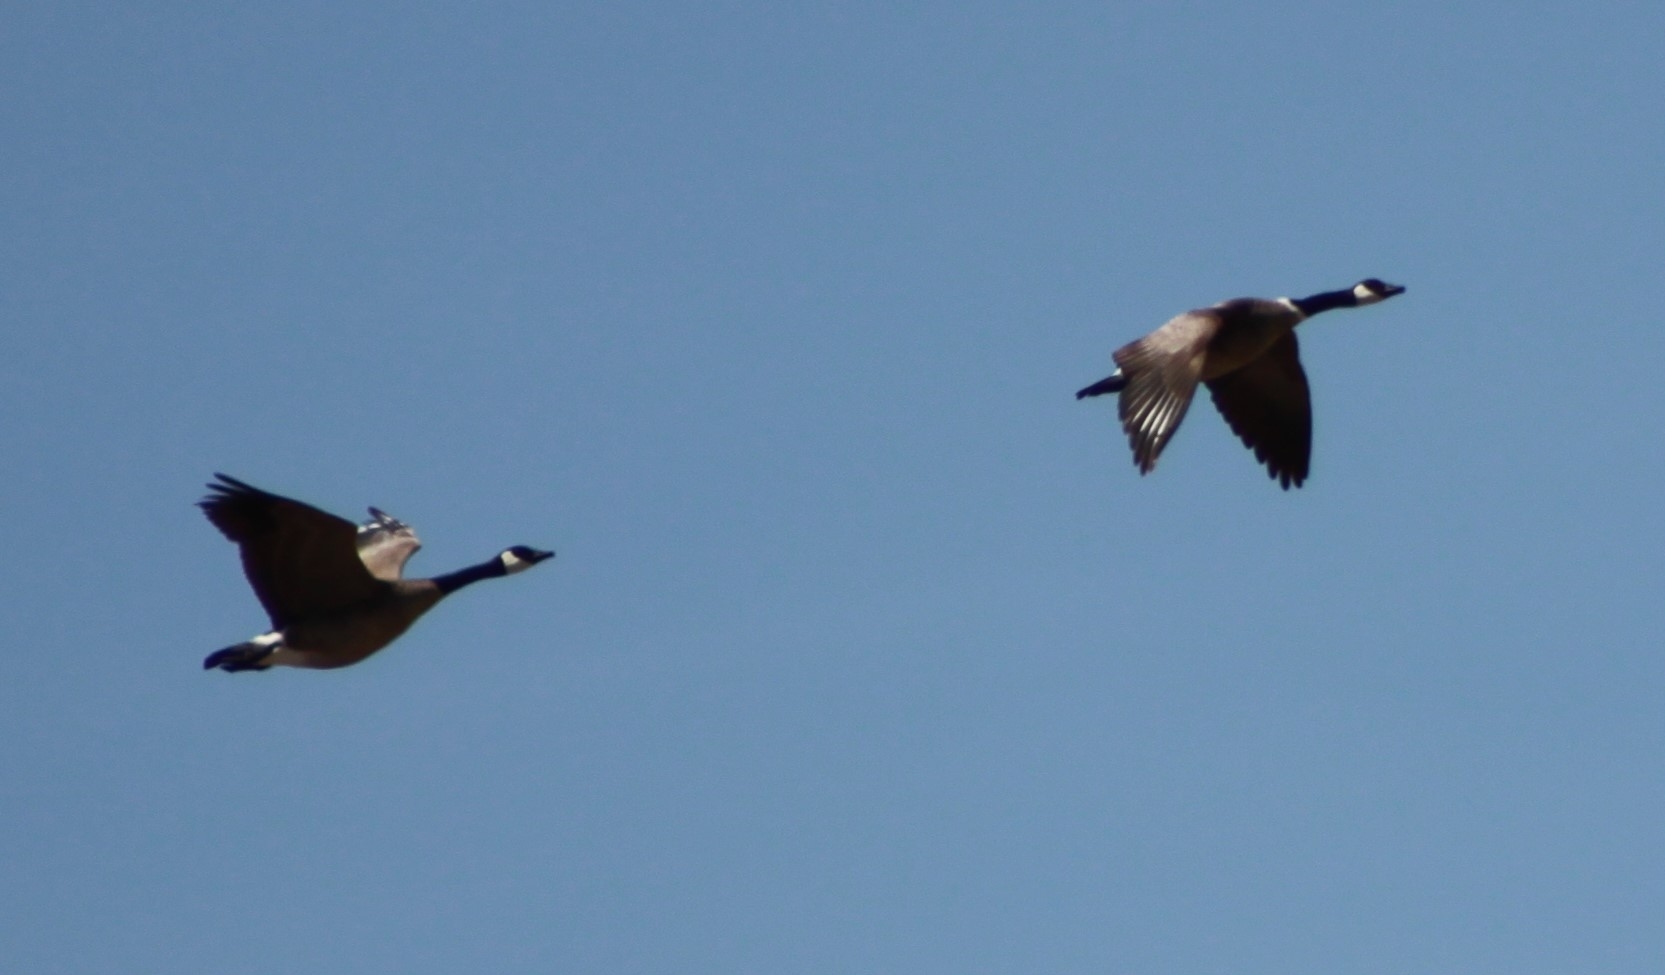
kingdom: Animalia
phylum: Chordata
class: Aves
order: Anseriformes
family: Anatidae
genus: Branta
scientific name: Branta canadensis
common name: Canada goose
